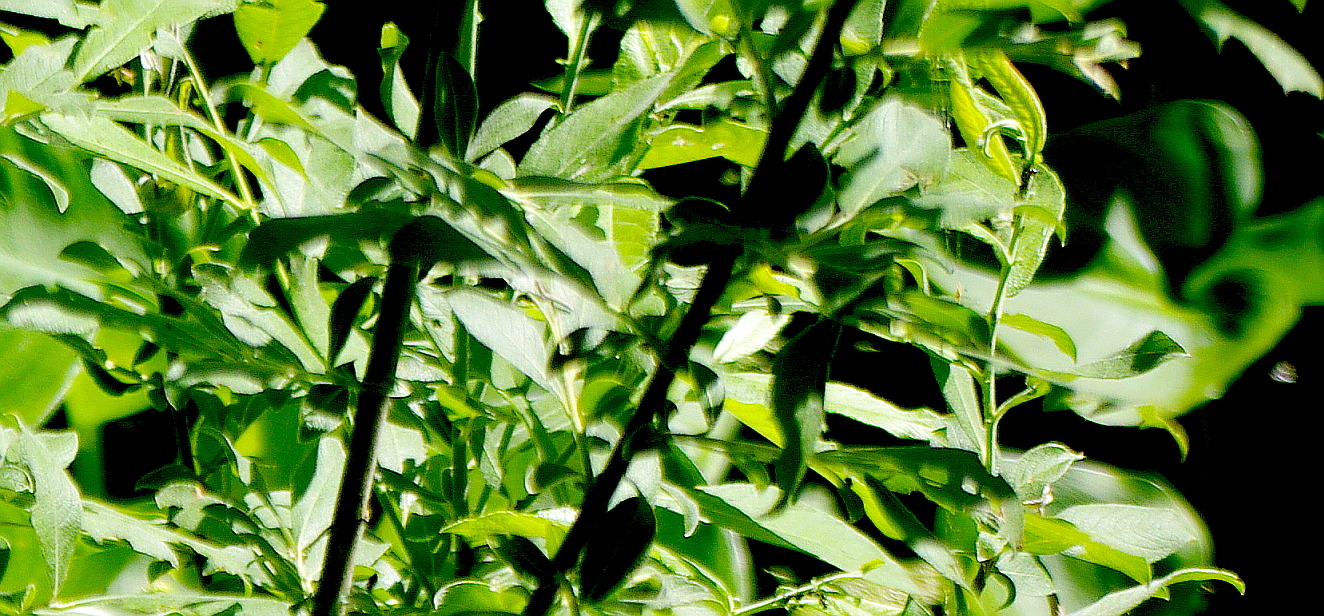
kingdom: Plantae
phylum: Tracheophyta
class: Magnoliopsida
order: Malpighiales
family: Salicaceae
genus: Salix
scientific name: Salix cinerea
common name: Common sallow
